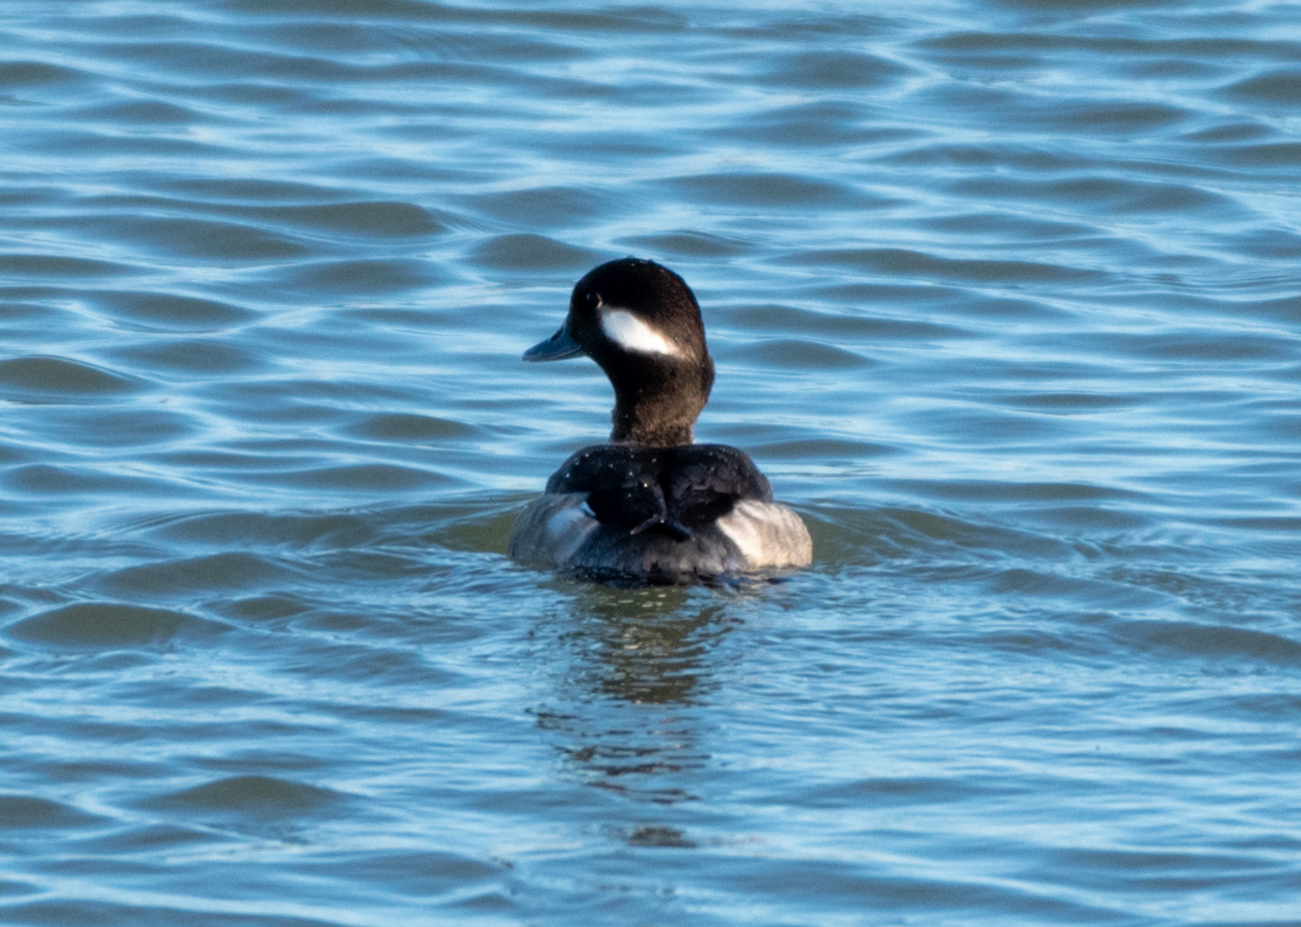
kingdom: Animalia
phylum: Chordata
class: Aves
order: Anseriformes
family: Anatidae
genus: Bucephala
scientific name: Bucephala albeola
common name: Bufflehead
